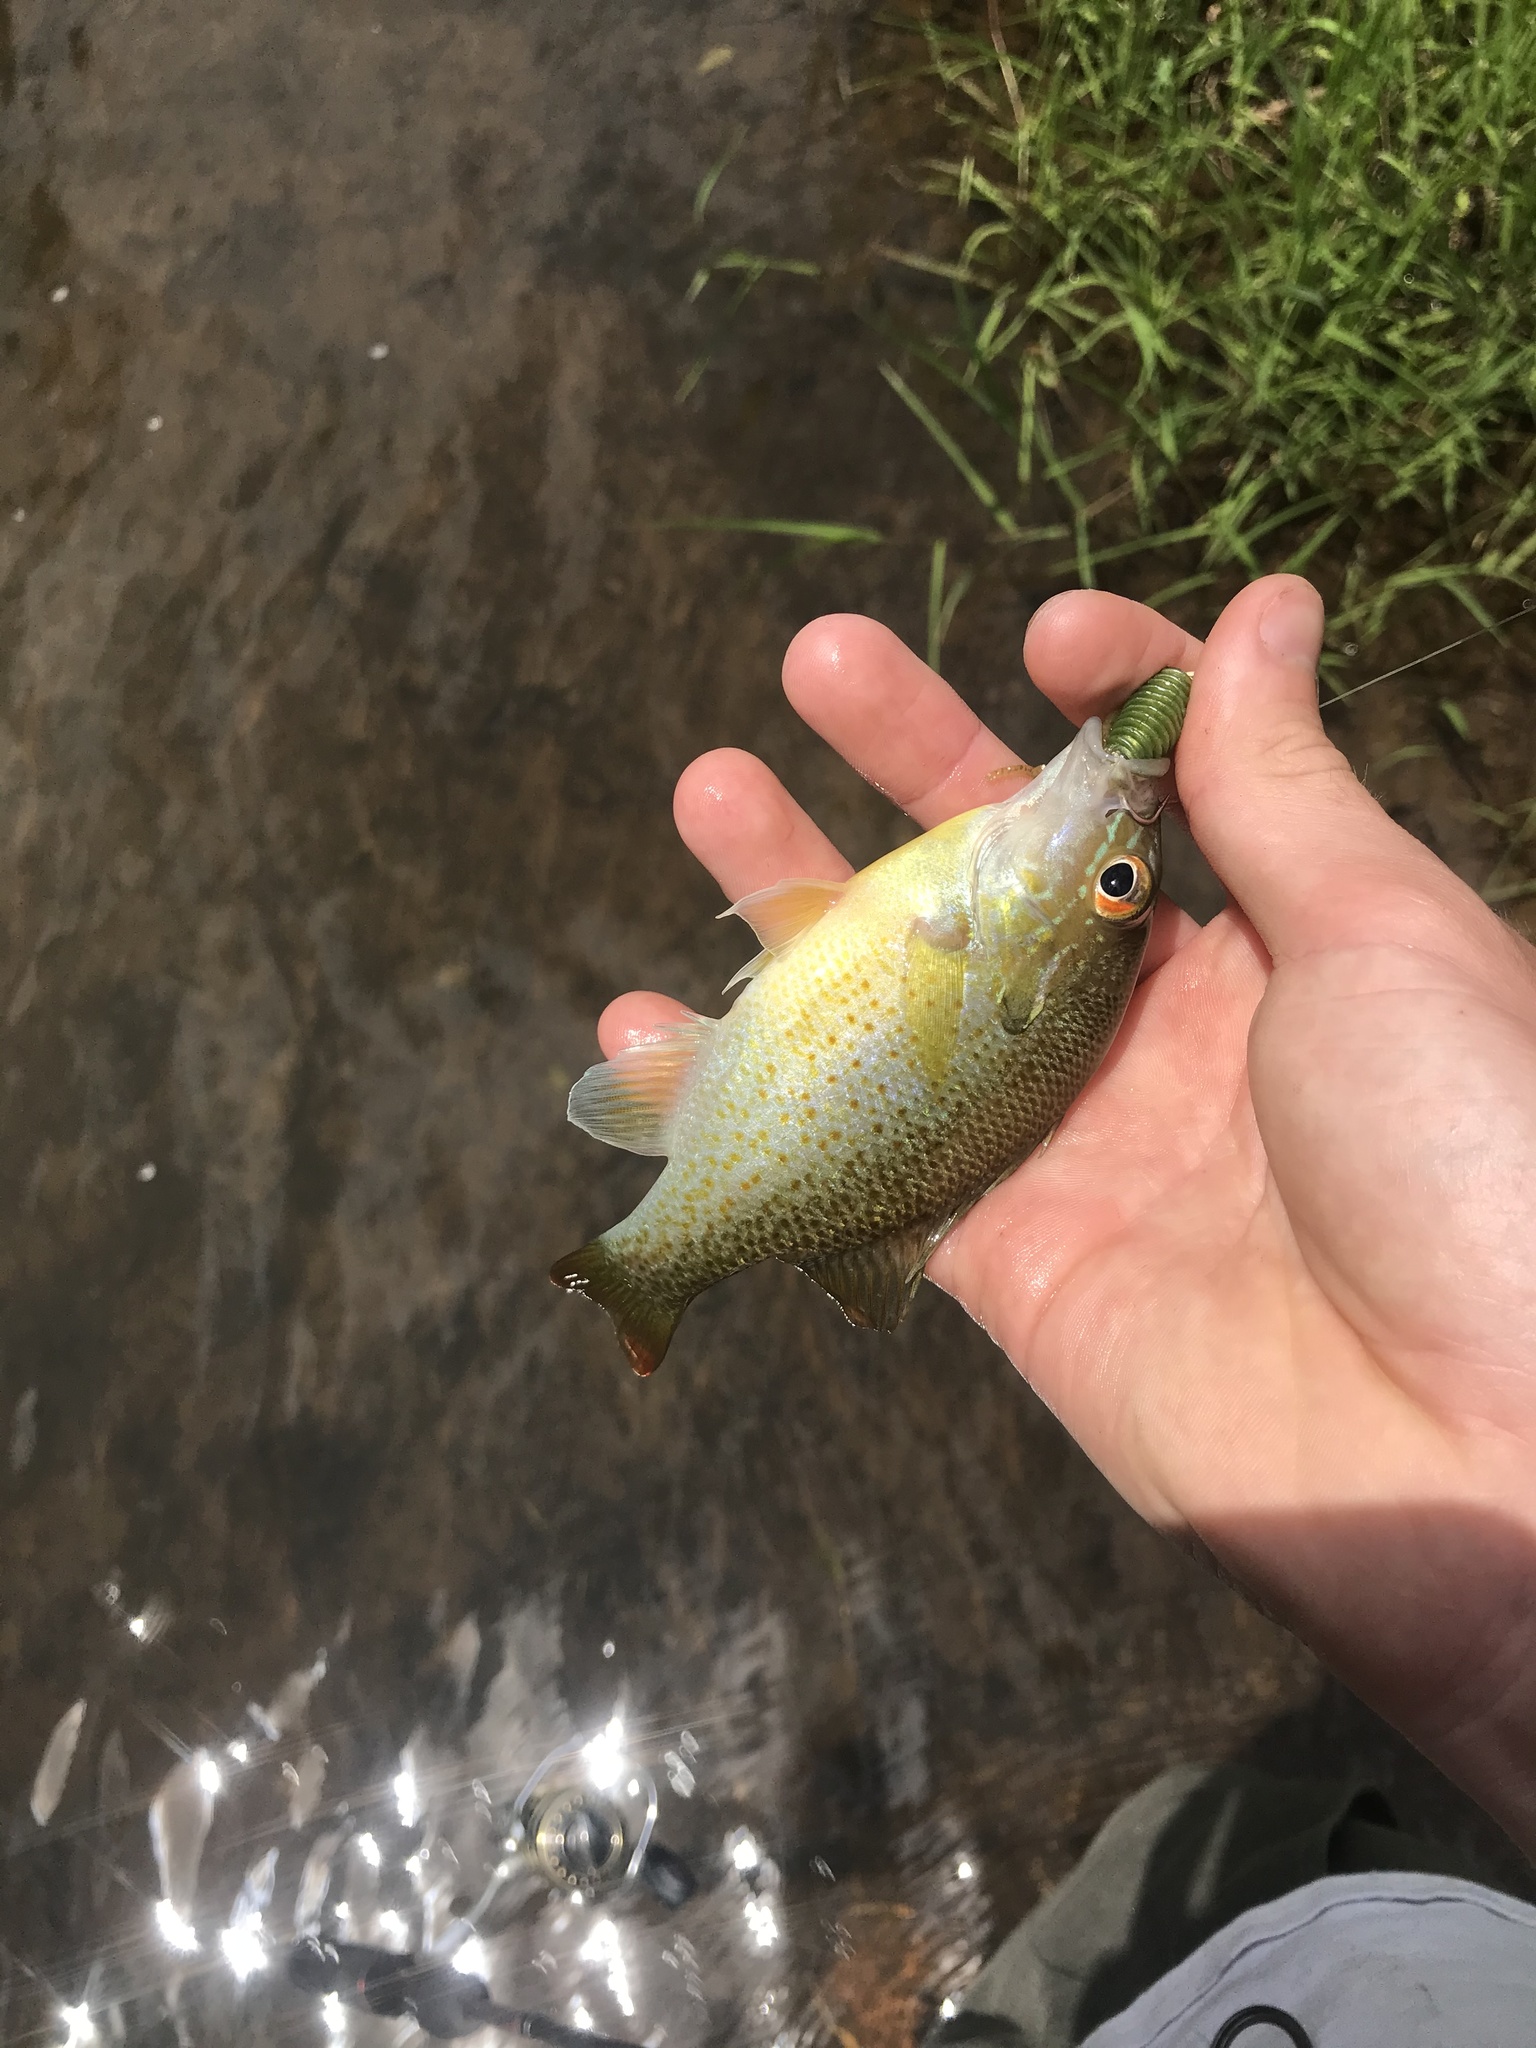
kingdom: Animalia
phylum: Chordata
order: Perciformes
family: Centrarchidae
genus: Lepomis
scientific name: Lepomis auritus
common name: Redbreast sunfish
